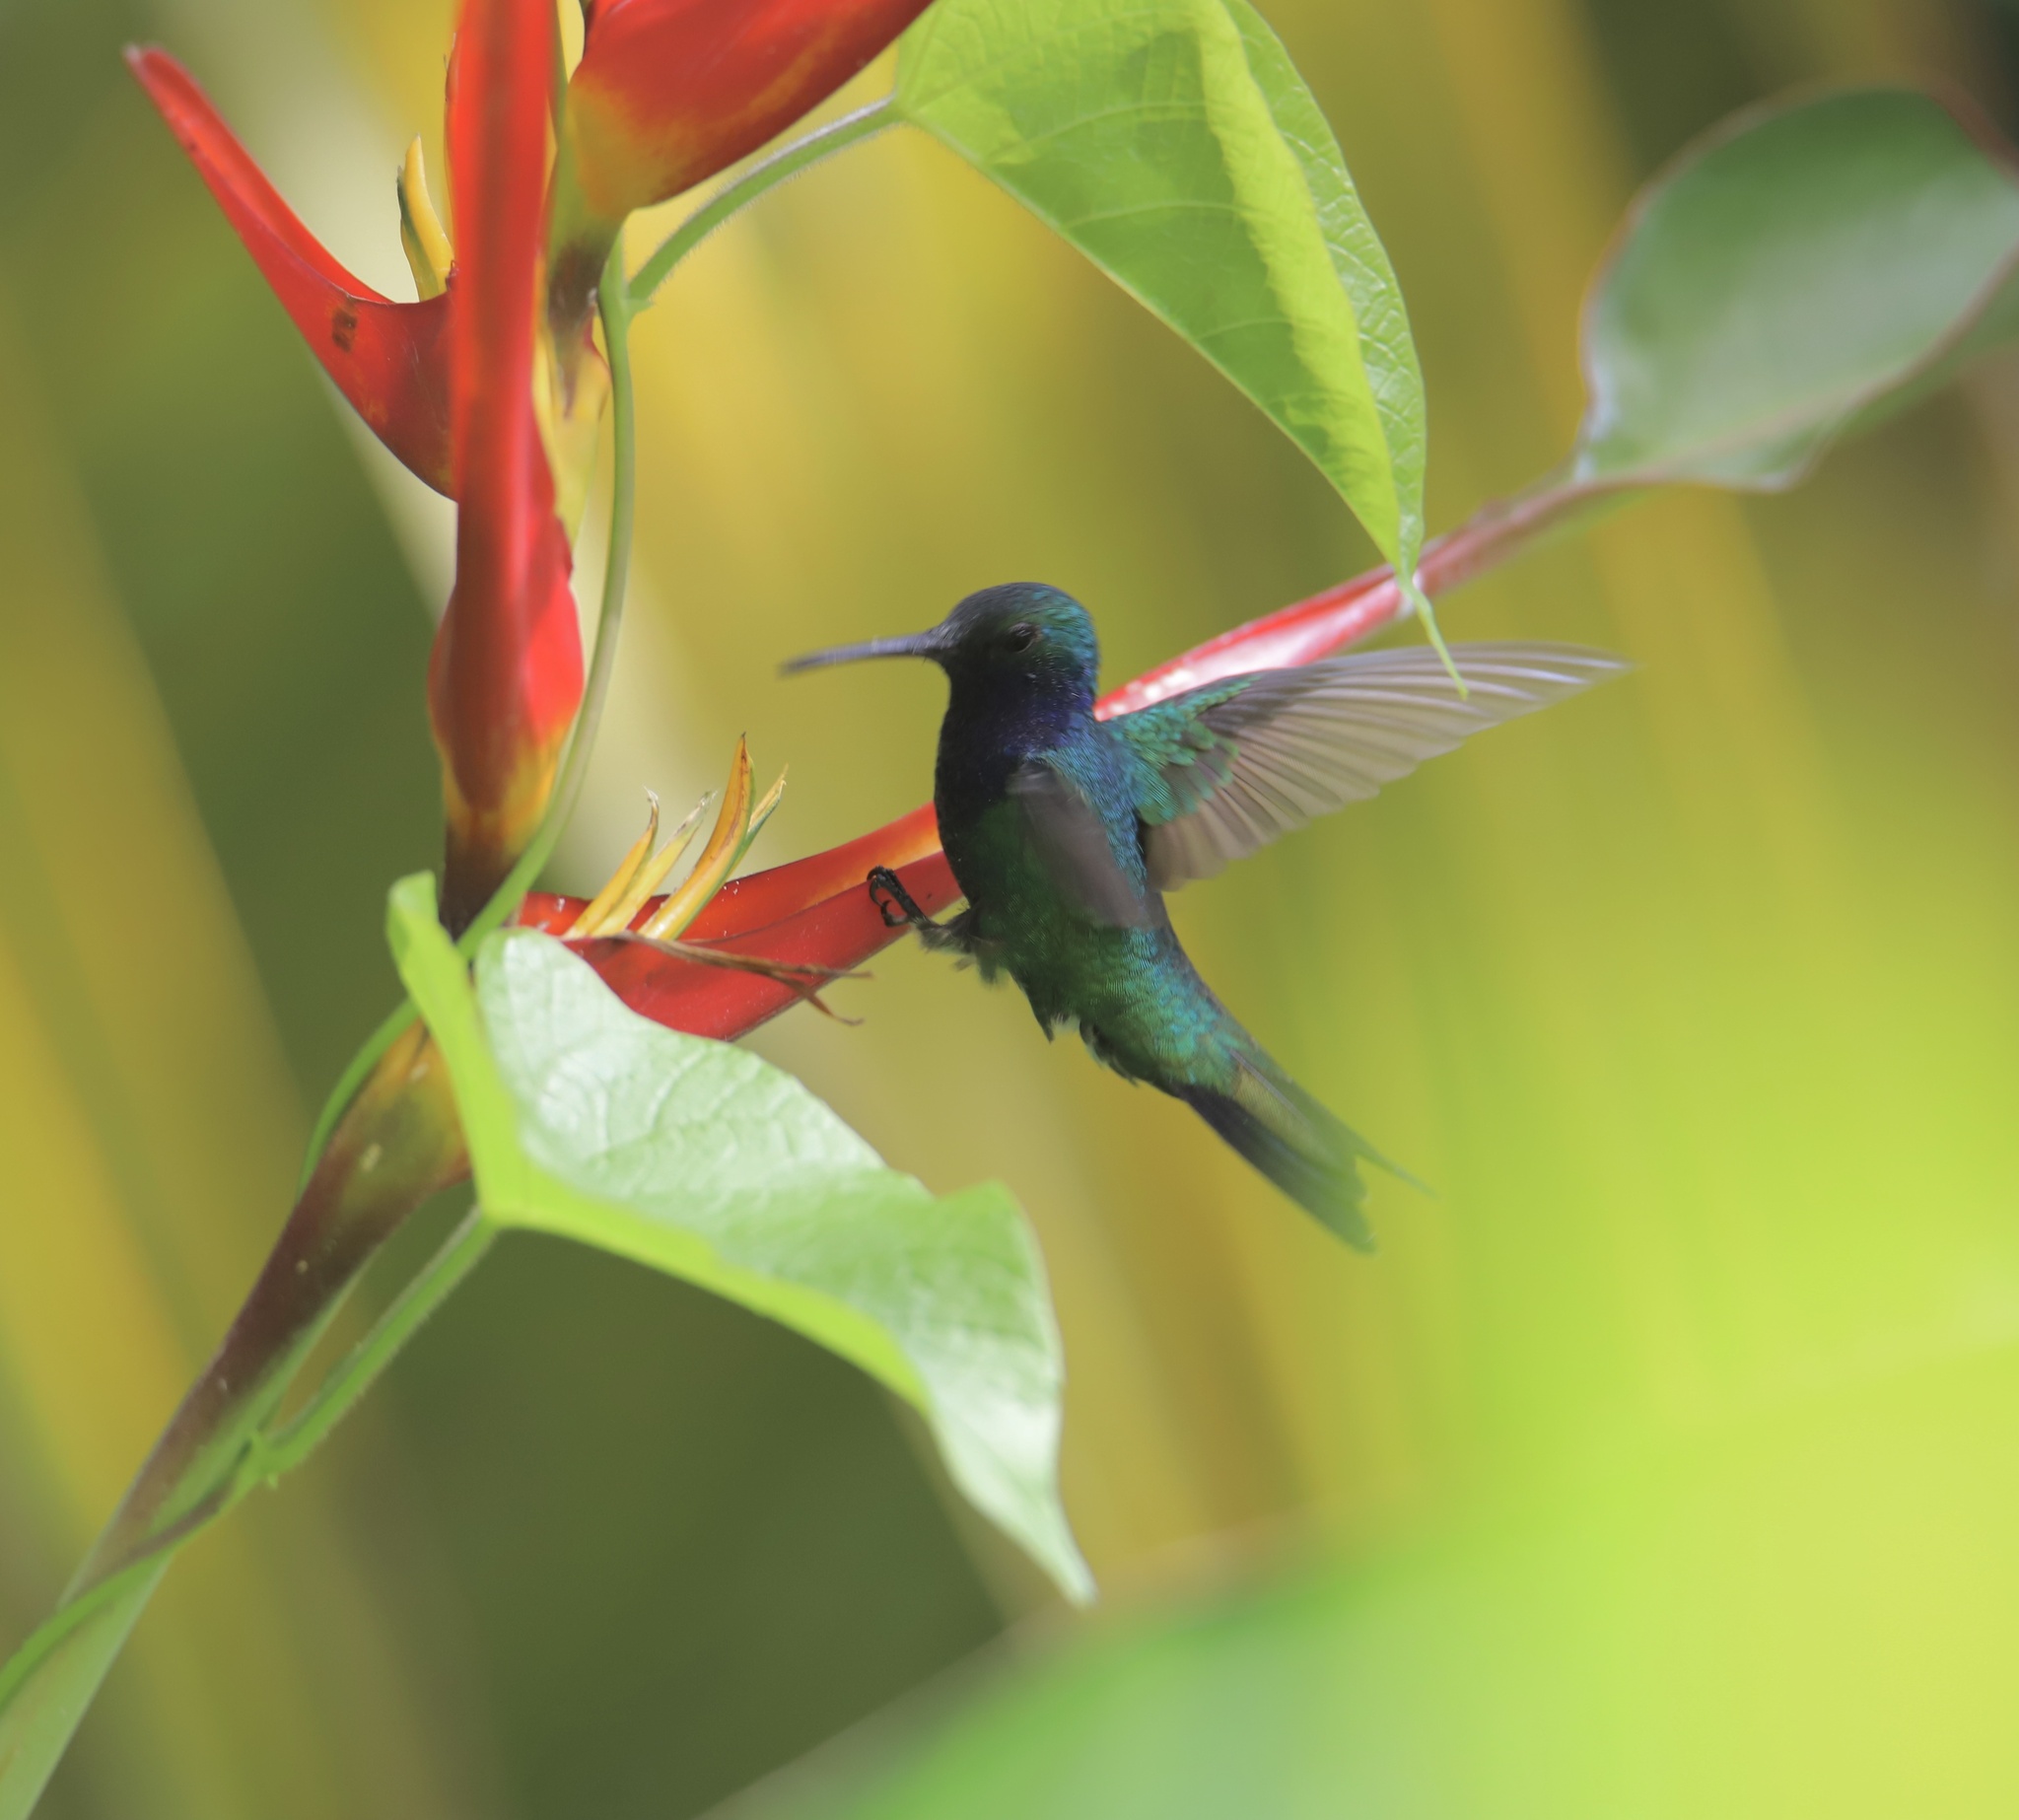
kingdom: Animalia
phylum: Chordata
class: Aves
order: Apodiformes
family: Trochilidae
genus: Chrysuronia
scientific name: Chrysuronia coeruleogularis
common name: Sapphire-throated hummingbird
